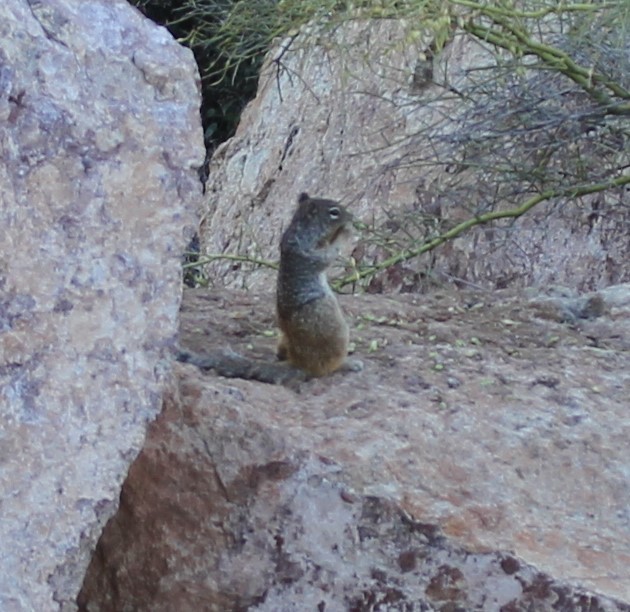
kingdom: Animalia
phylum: Chordata
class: Mammalia
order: Rodentia
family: Sciuridae
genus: Otospermophilus
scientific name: Otospermophilus variegatus
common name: Rock squirrel
